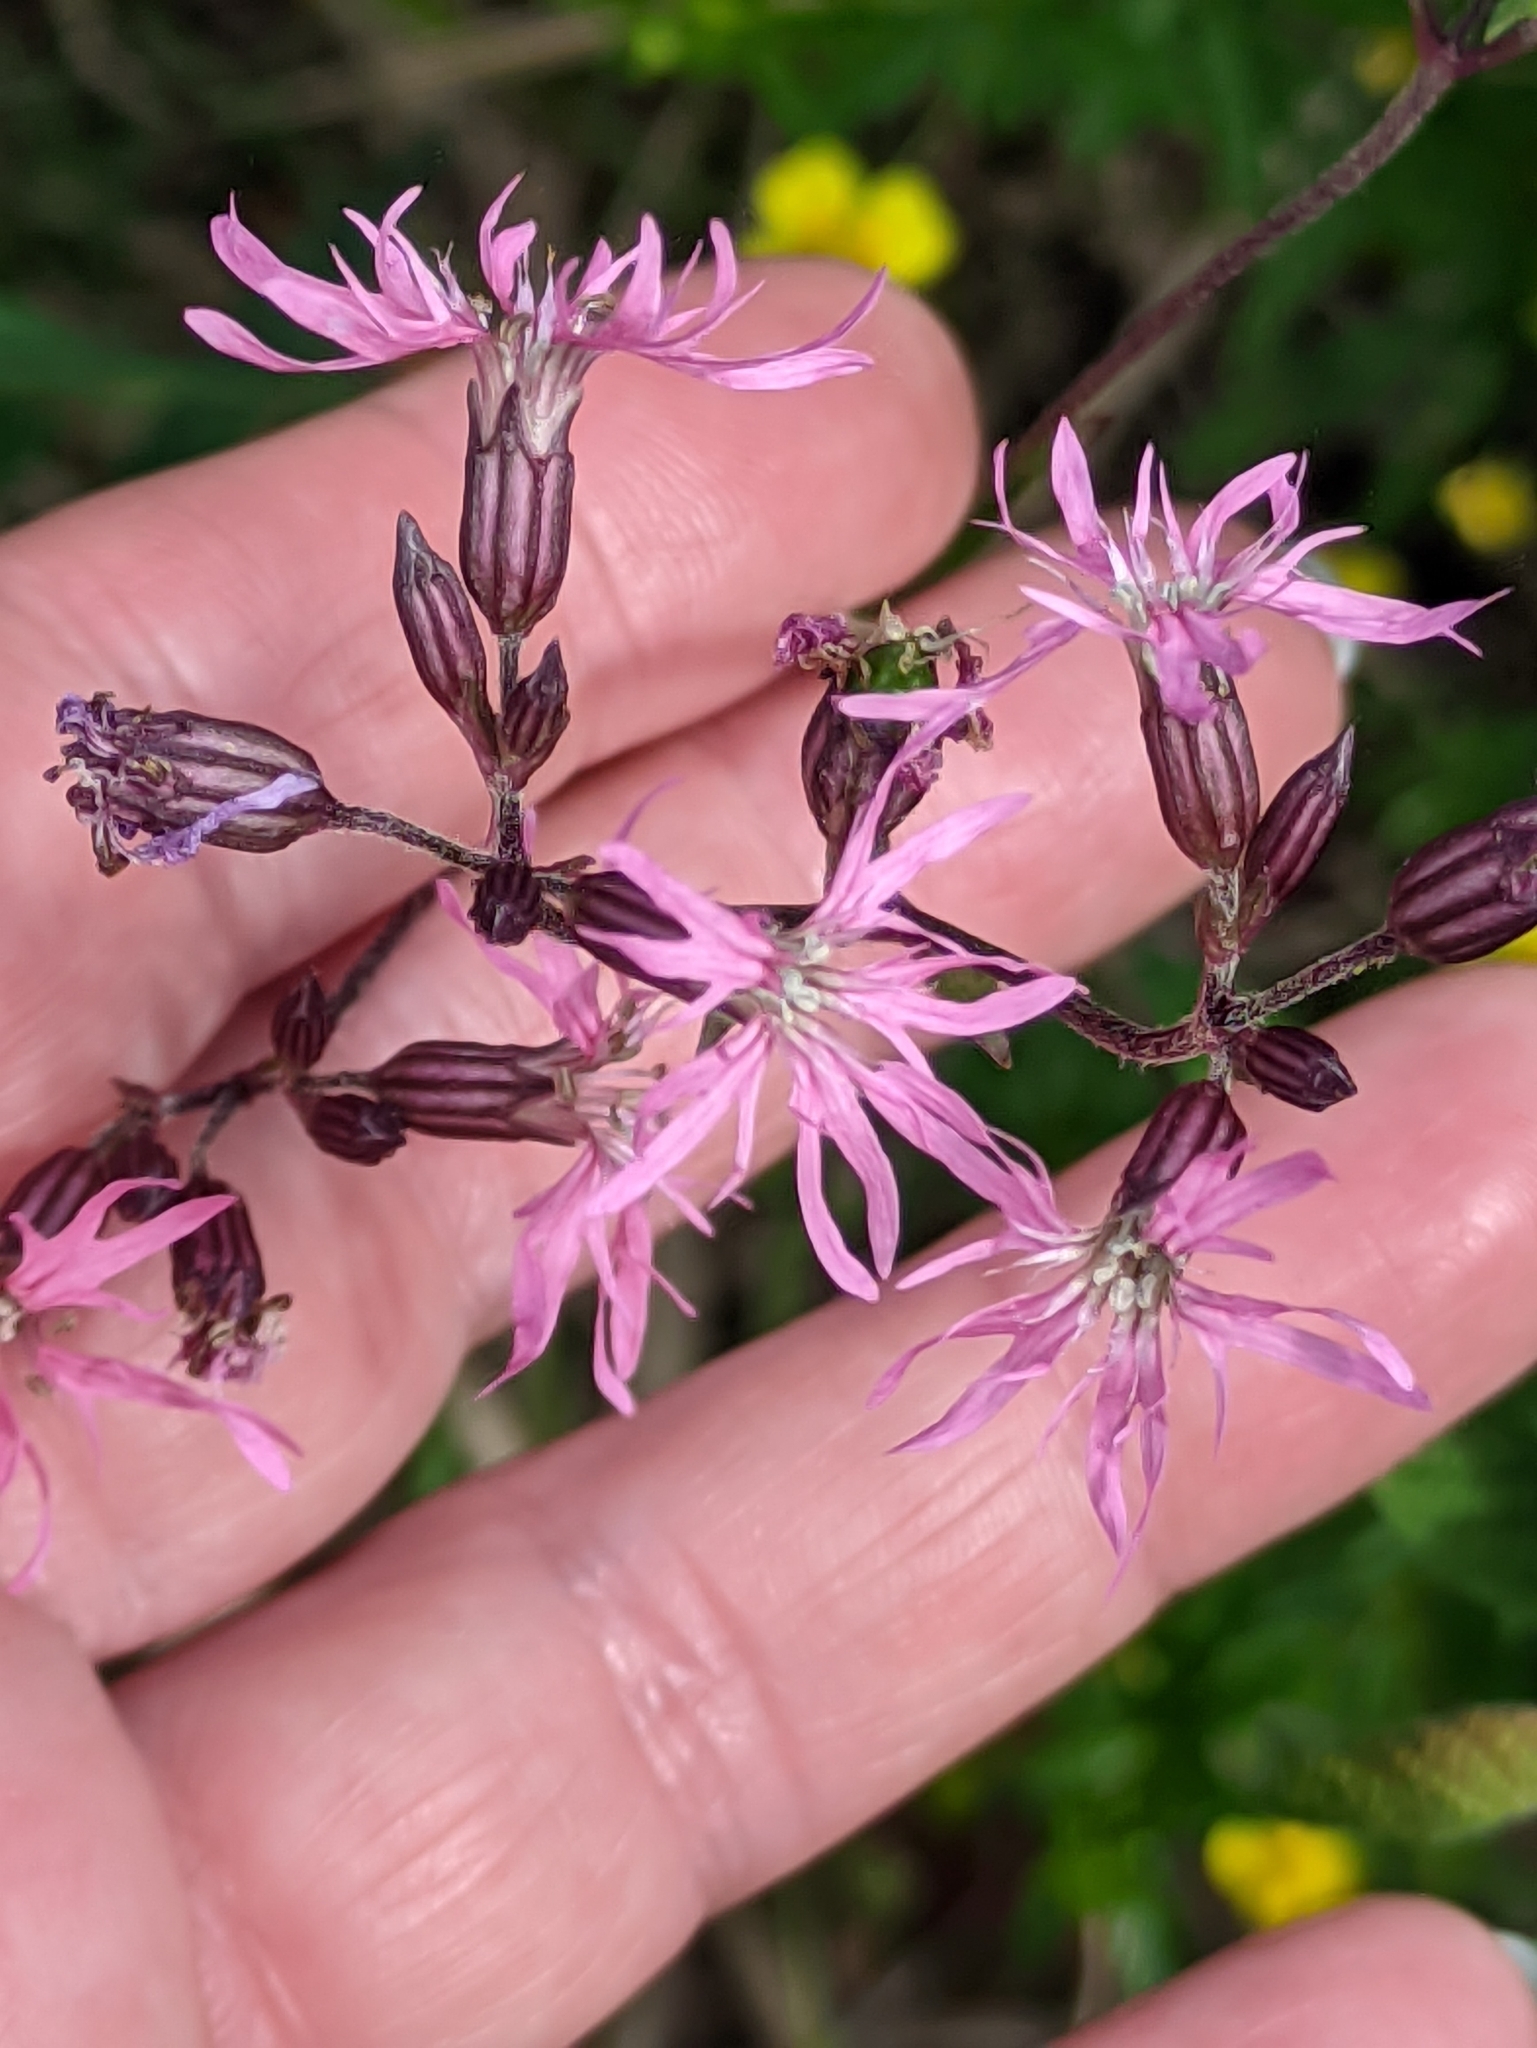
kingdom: Plantae
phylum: Tracheophyta
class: Magnoliopsida
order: Caryophyllales
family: Caryophyllaceae
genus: Silene
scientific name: Silene flos-cuculi
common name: Ragged-robin
